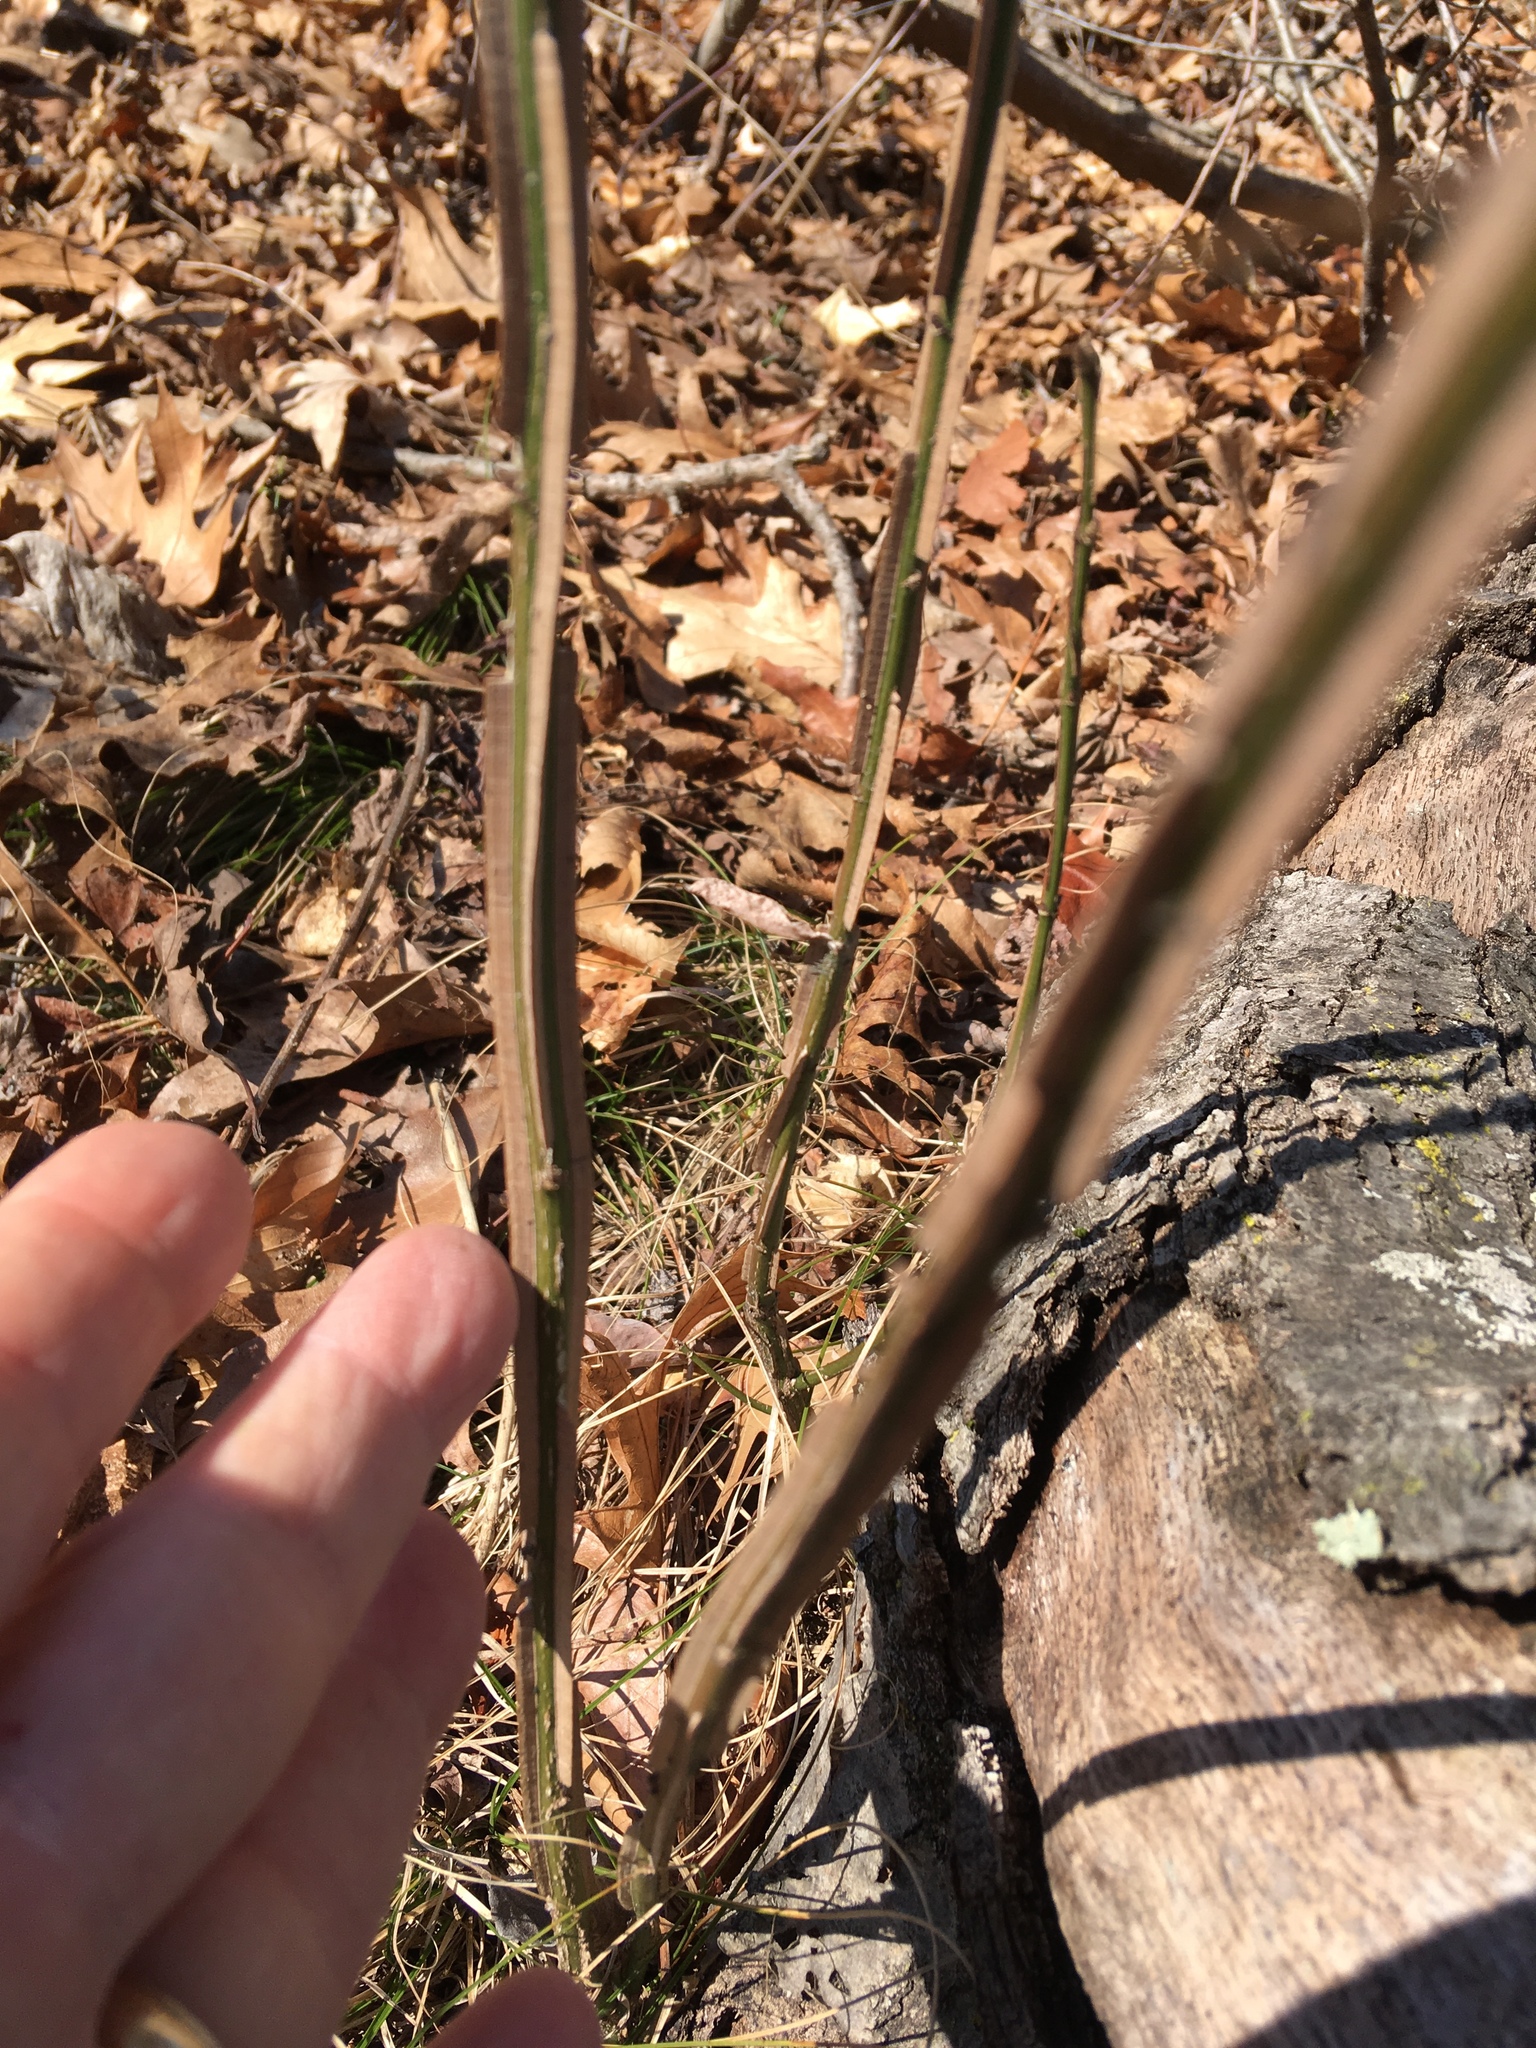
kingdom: Plantae
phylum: Tracheophyta
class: Magnoliopsida
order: Celastrales
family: Celastraceae
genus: Euonymus
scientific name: Euonymus alatus
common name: Winged euonymus
